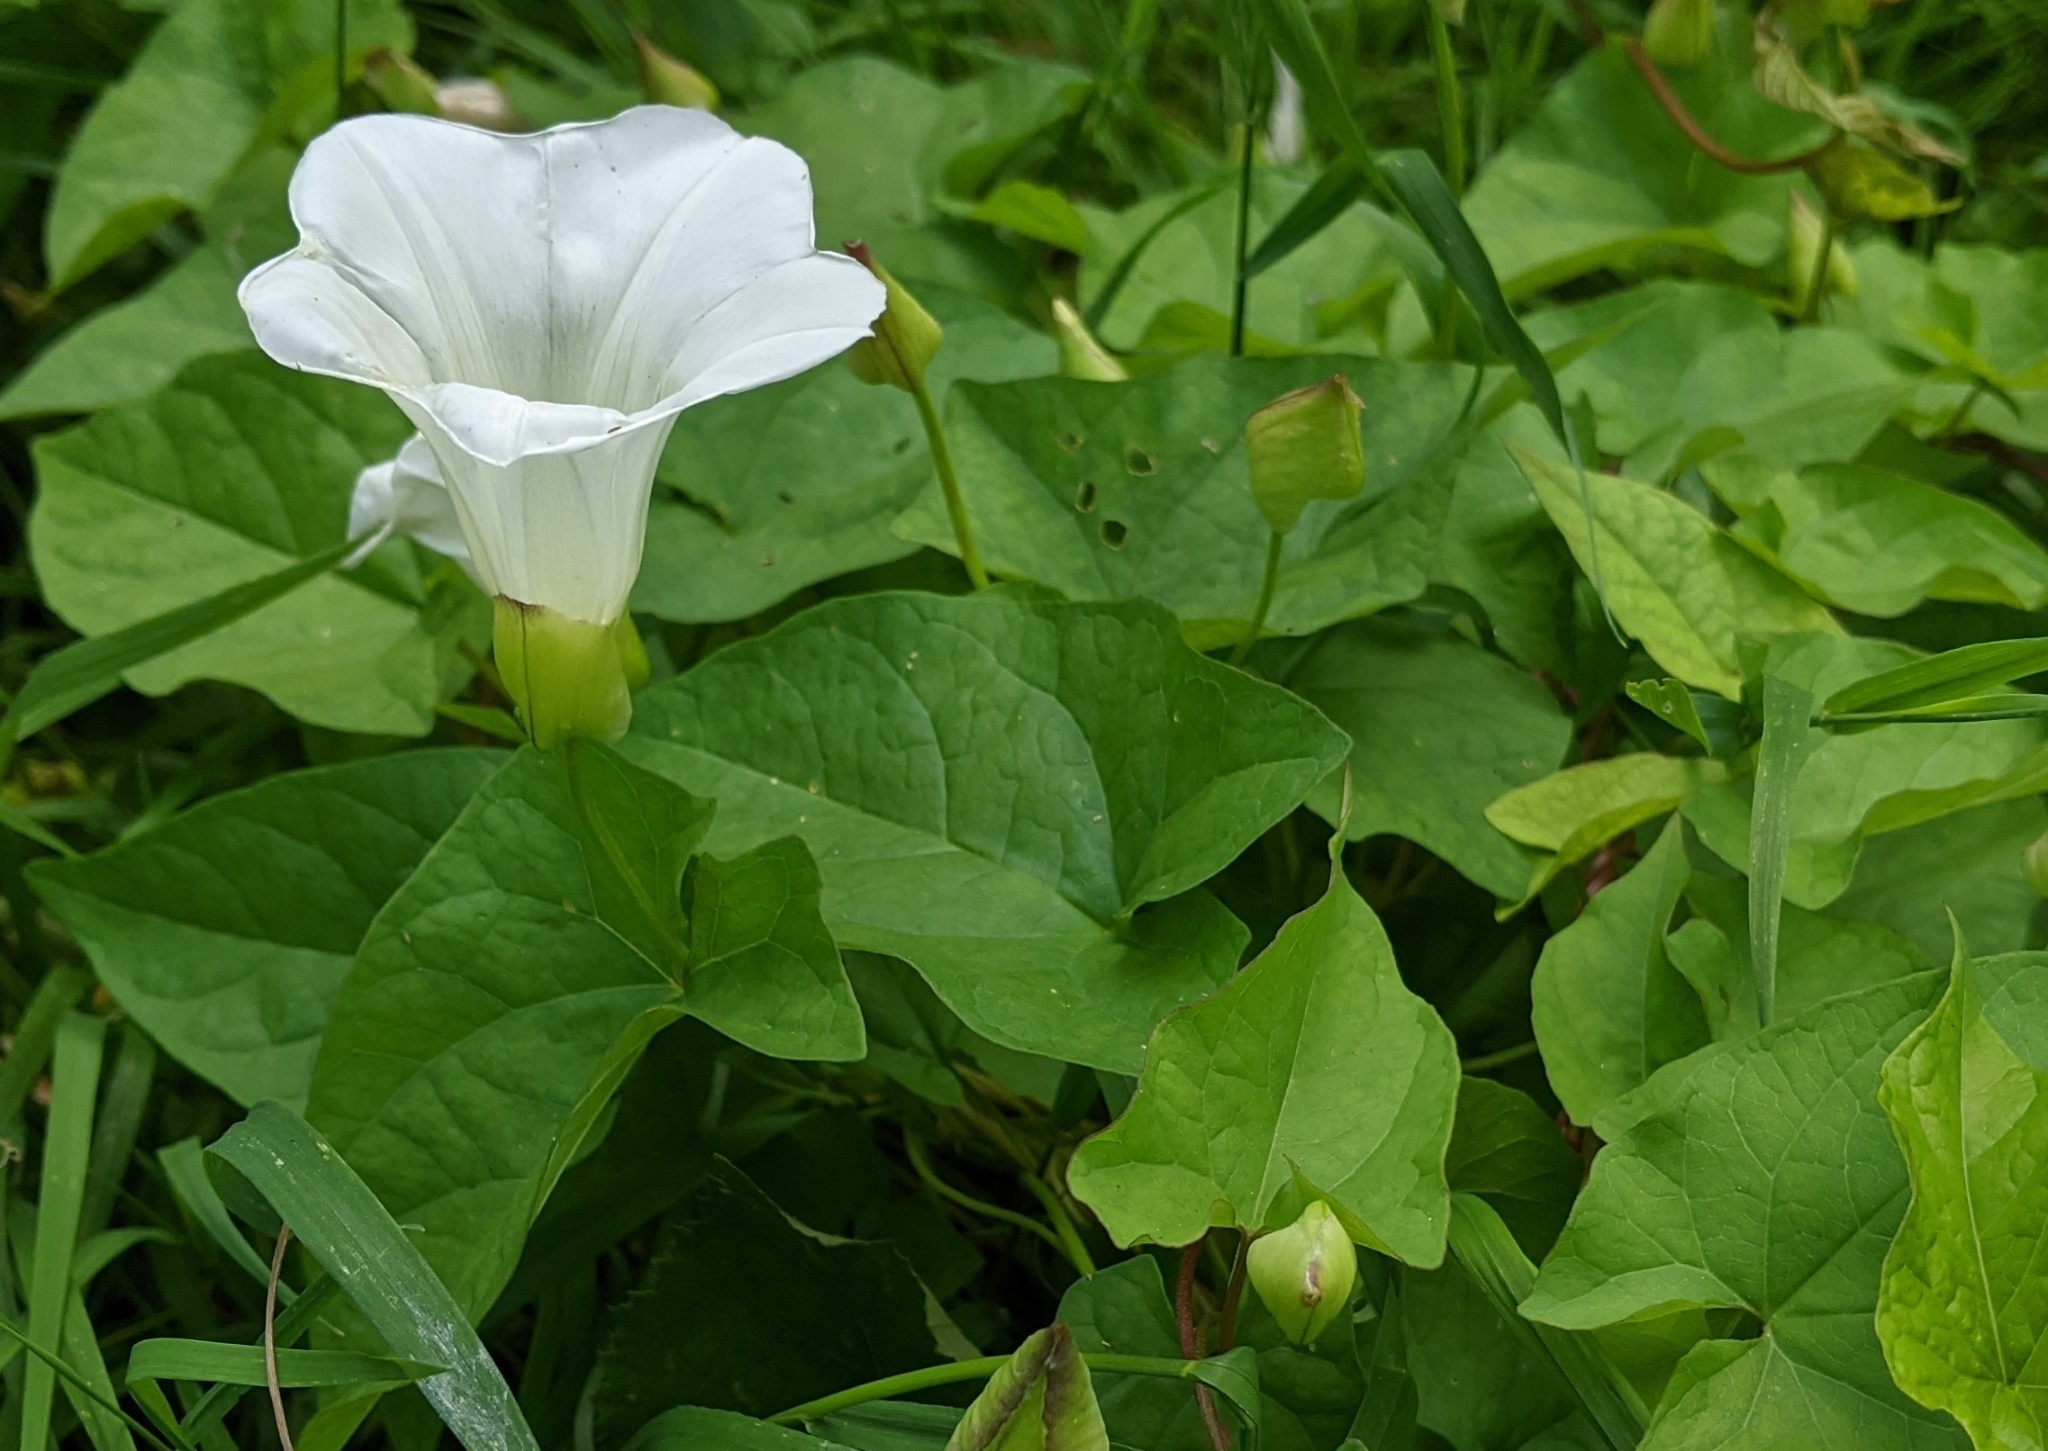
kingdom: Plantae
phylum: Tracheophyta
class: Magnoliopsida
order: Solanales
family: Convolvulaceae
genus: Calystegia
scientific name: Calystegia silvatica
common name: Large bindweed
